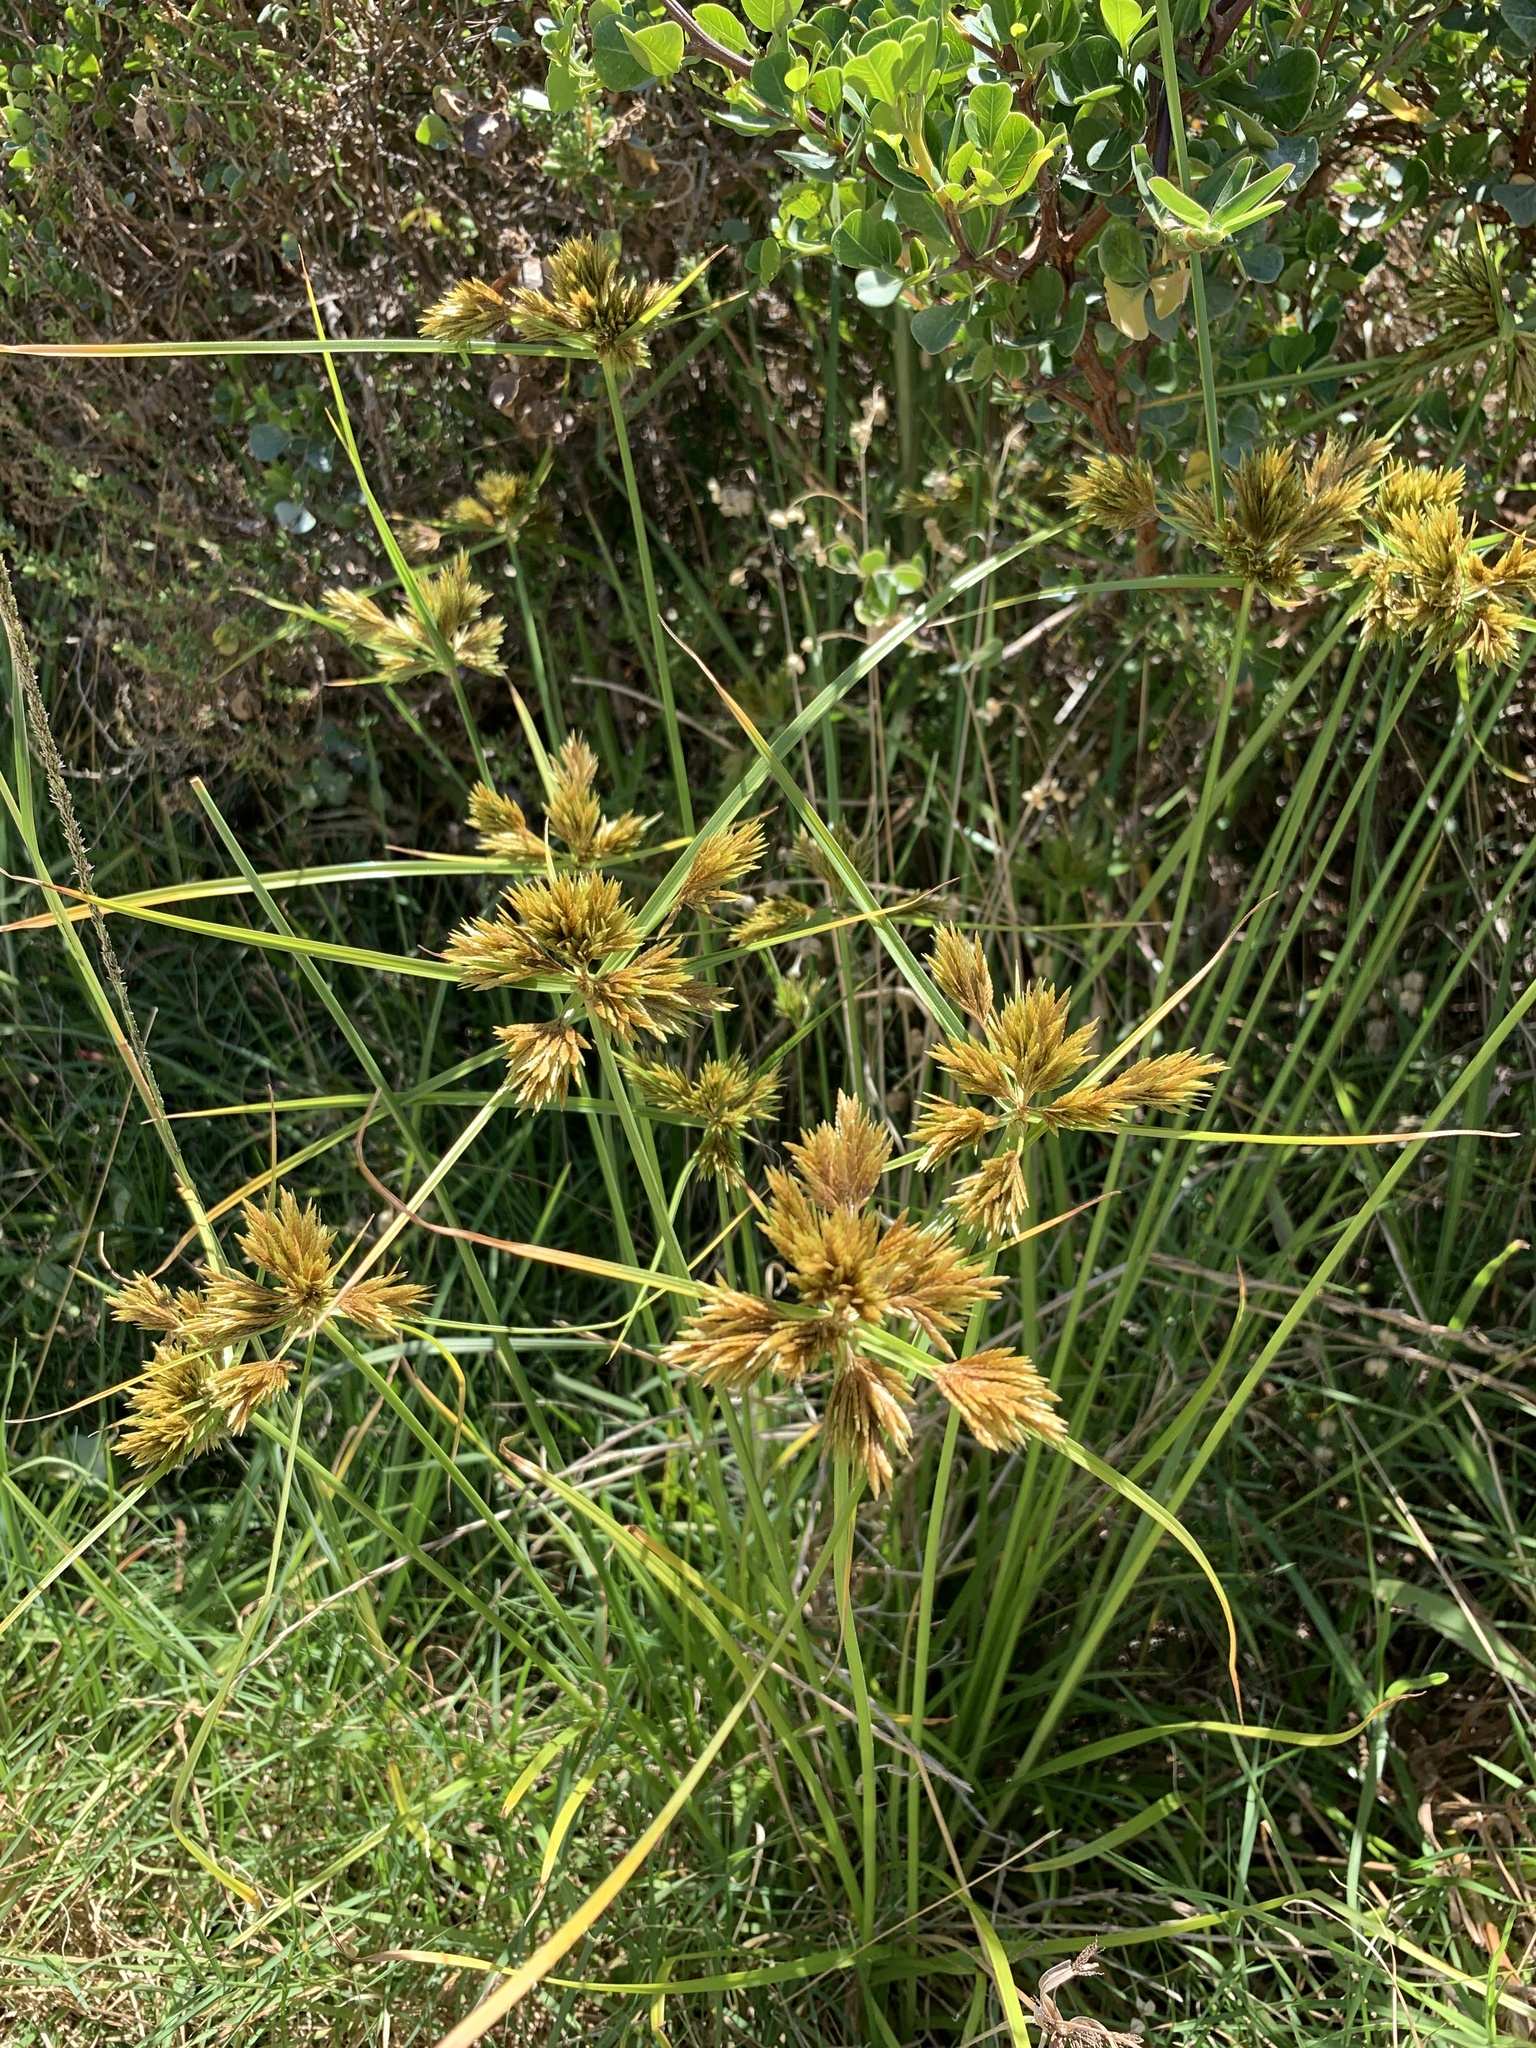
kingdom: Plantae
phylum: Tracheophyta
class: Liliopsida
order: Poales
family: Cyperaceae
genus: Cyperus
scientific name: Cyperus polystachyos
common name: Bunchy flat sedge
